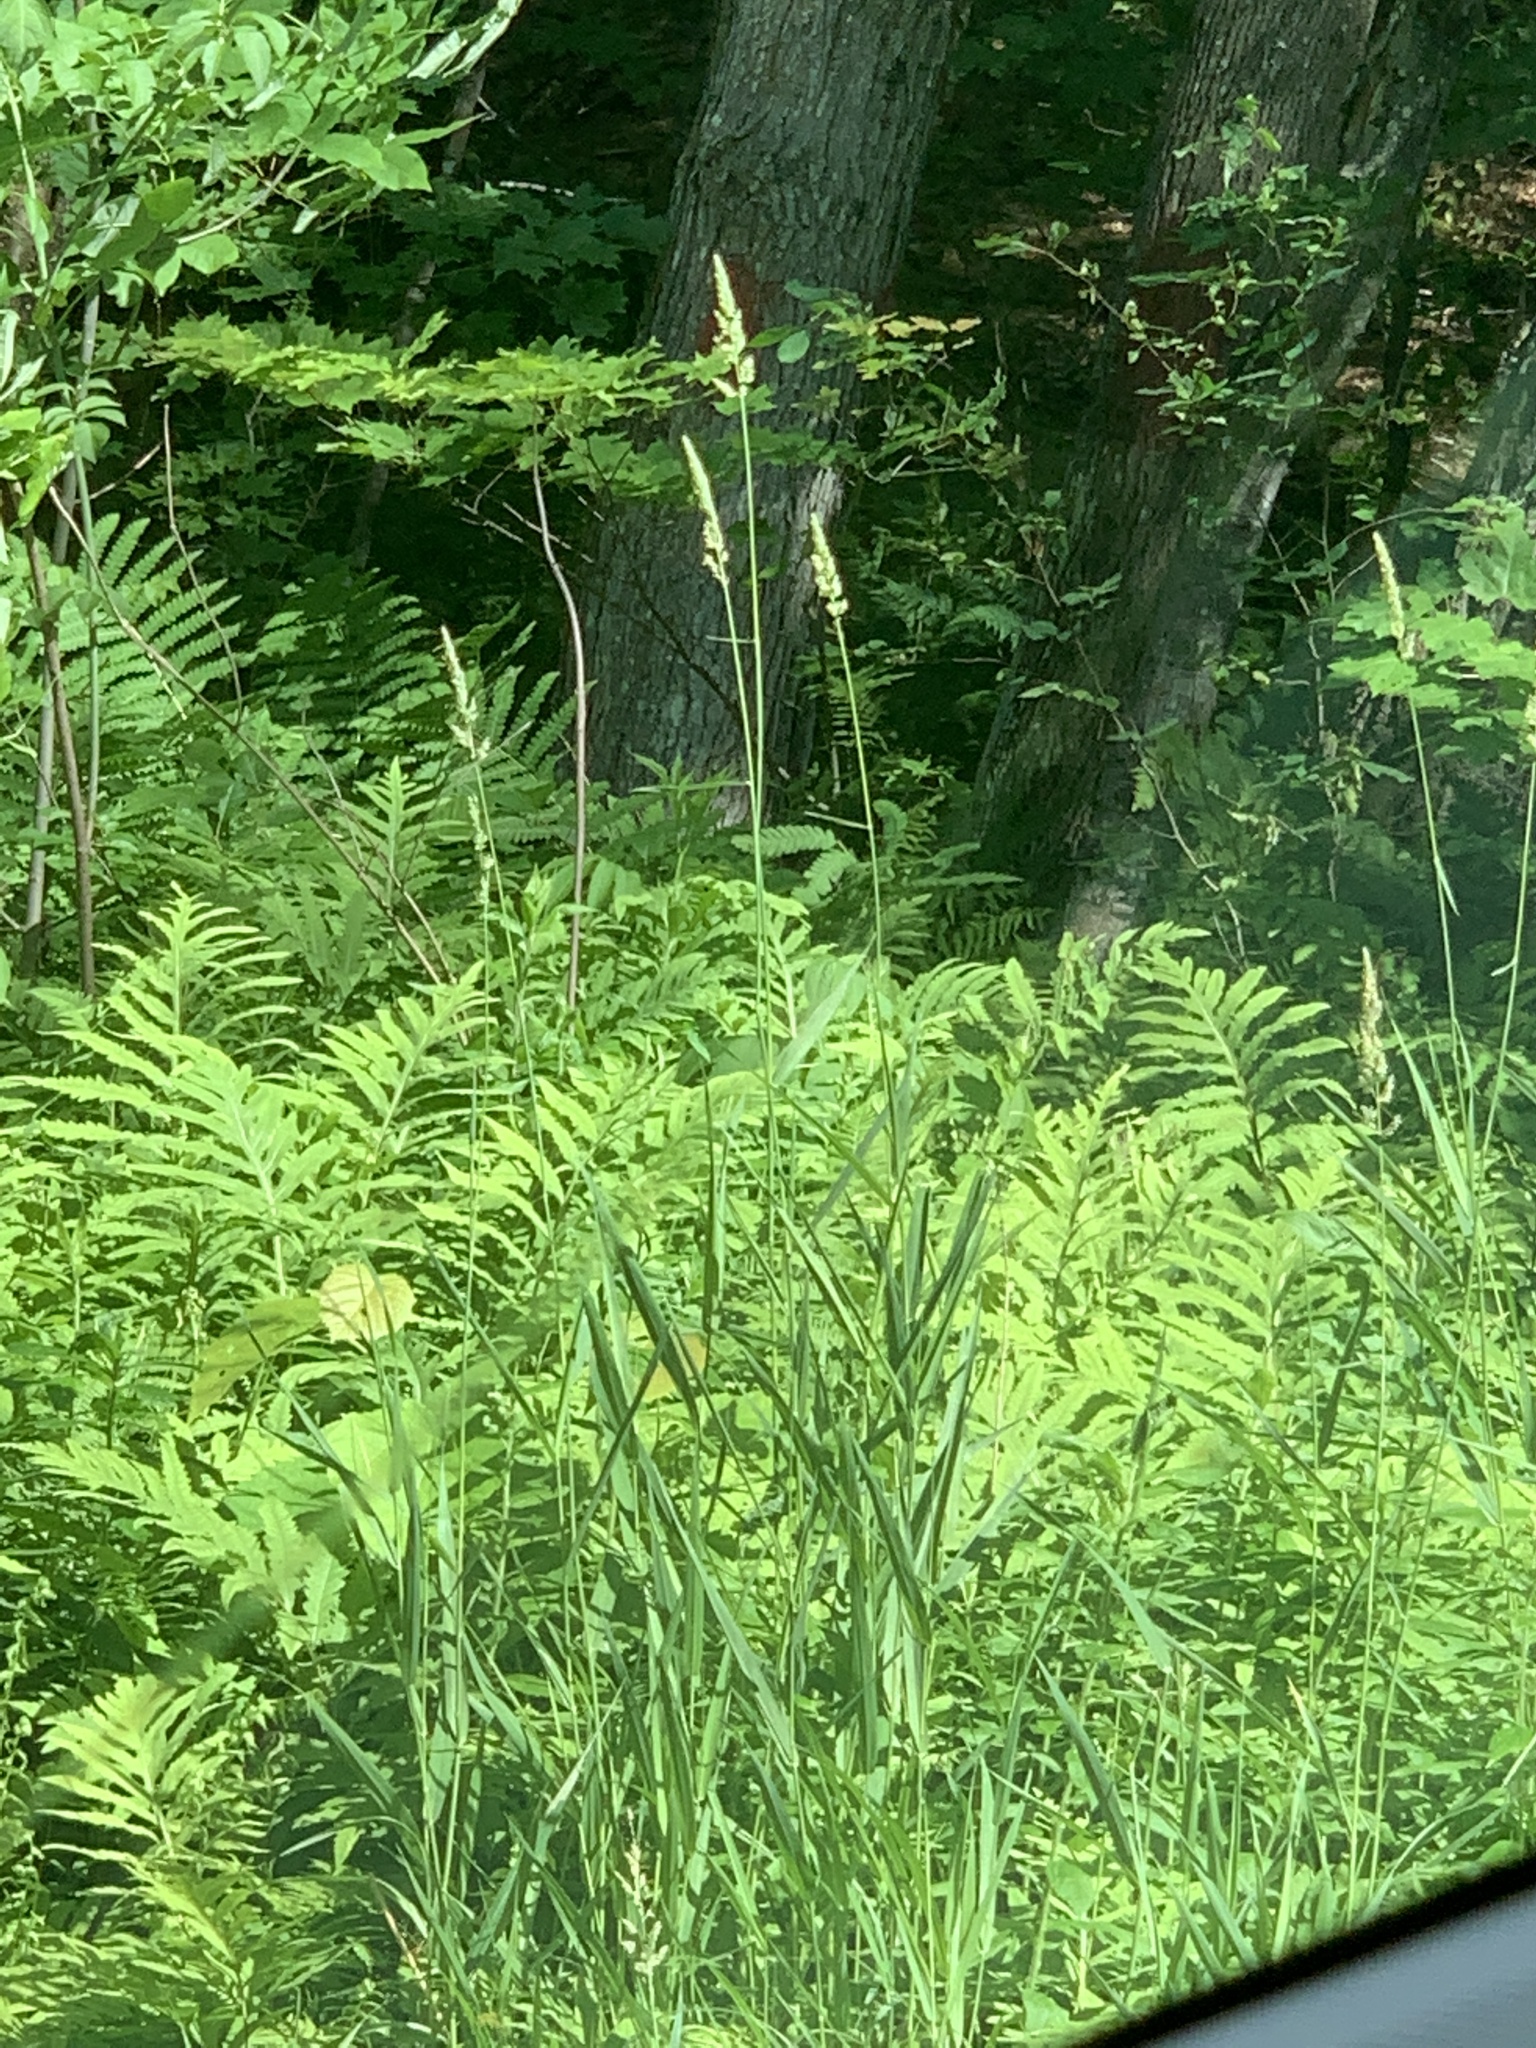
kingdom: Plantae
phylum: Tracheophyta
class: Liliopsida
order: Poales
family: Poaceae
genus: Phalaris
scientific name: Phalaris arundinacea
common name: Reed canary-grass
